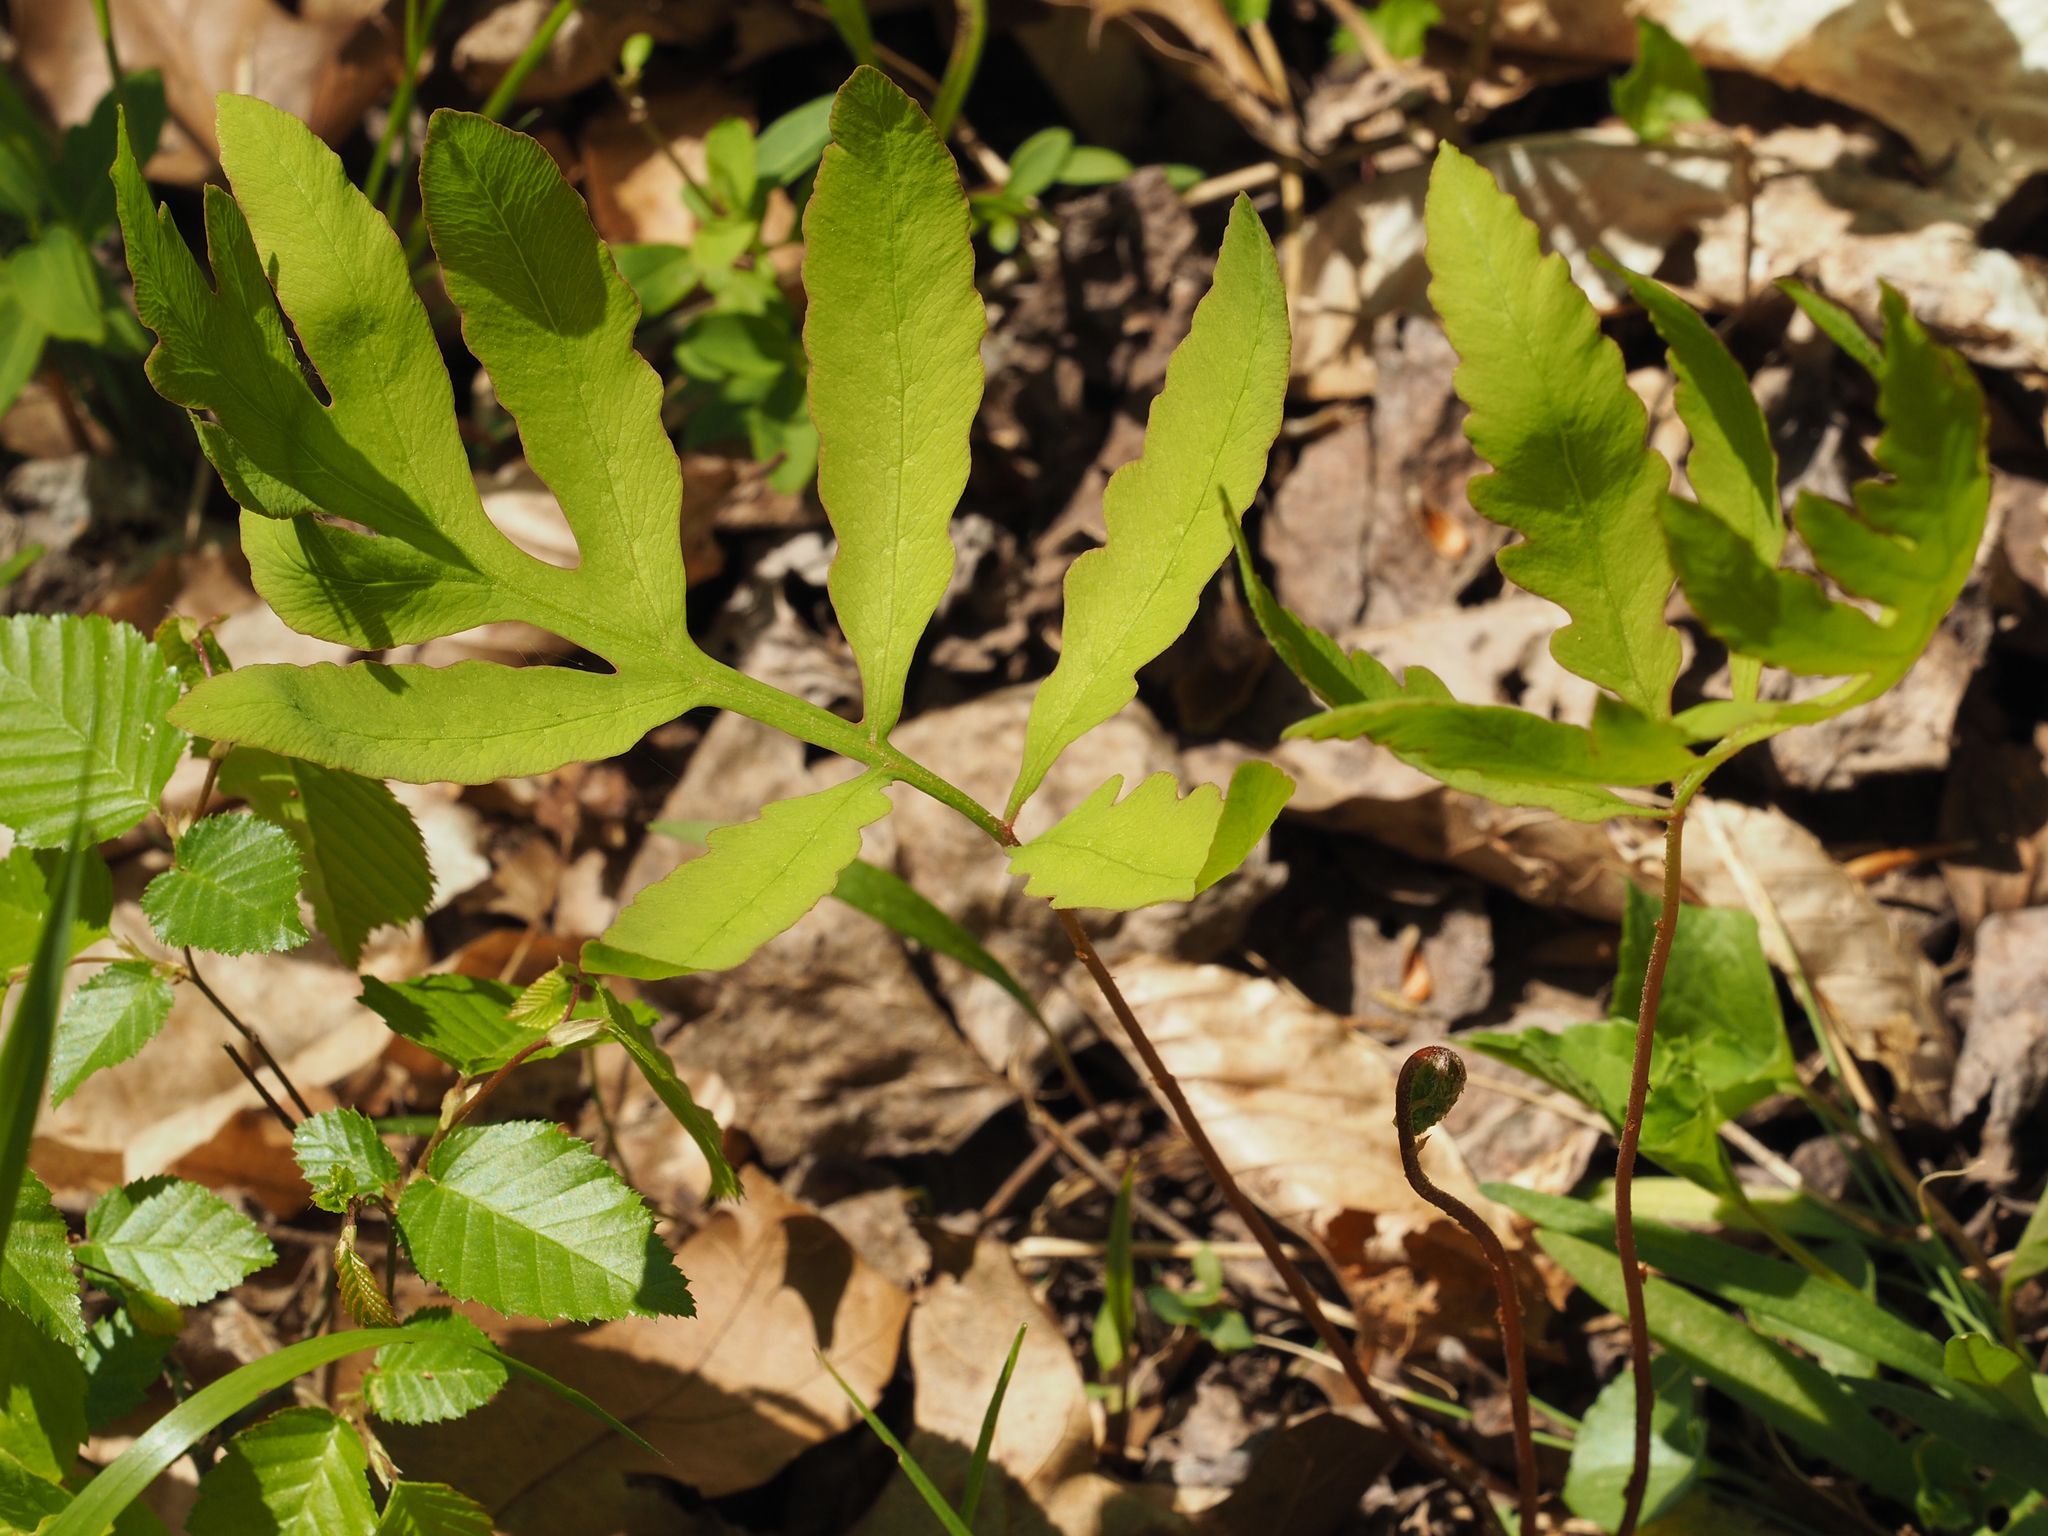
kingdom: Plantae
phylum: Tracheophyta
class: Polypodiopsida
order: Polypodiales
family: Onocleaceae
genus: Onoclea
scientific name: Onoclea sensibilis
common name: Sensitive fern
